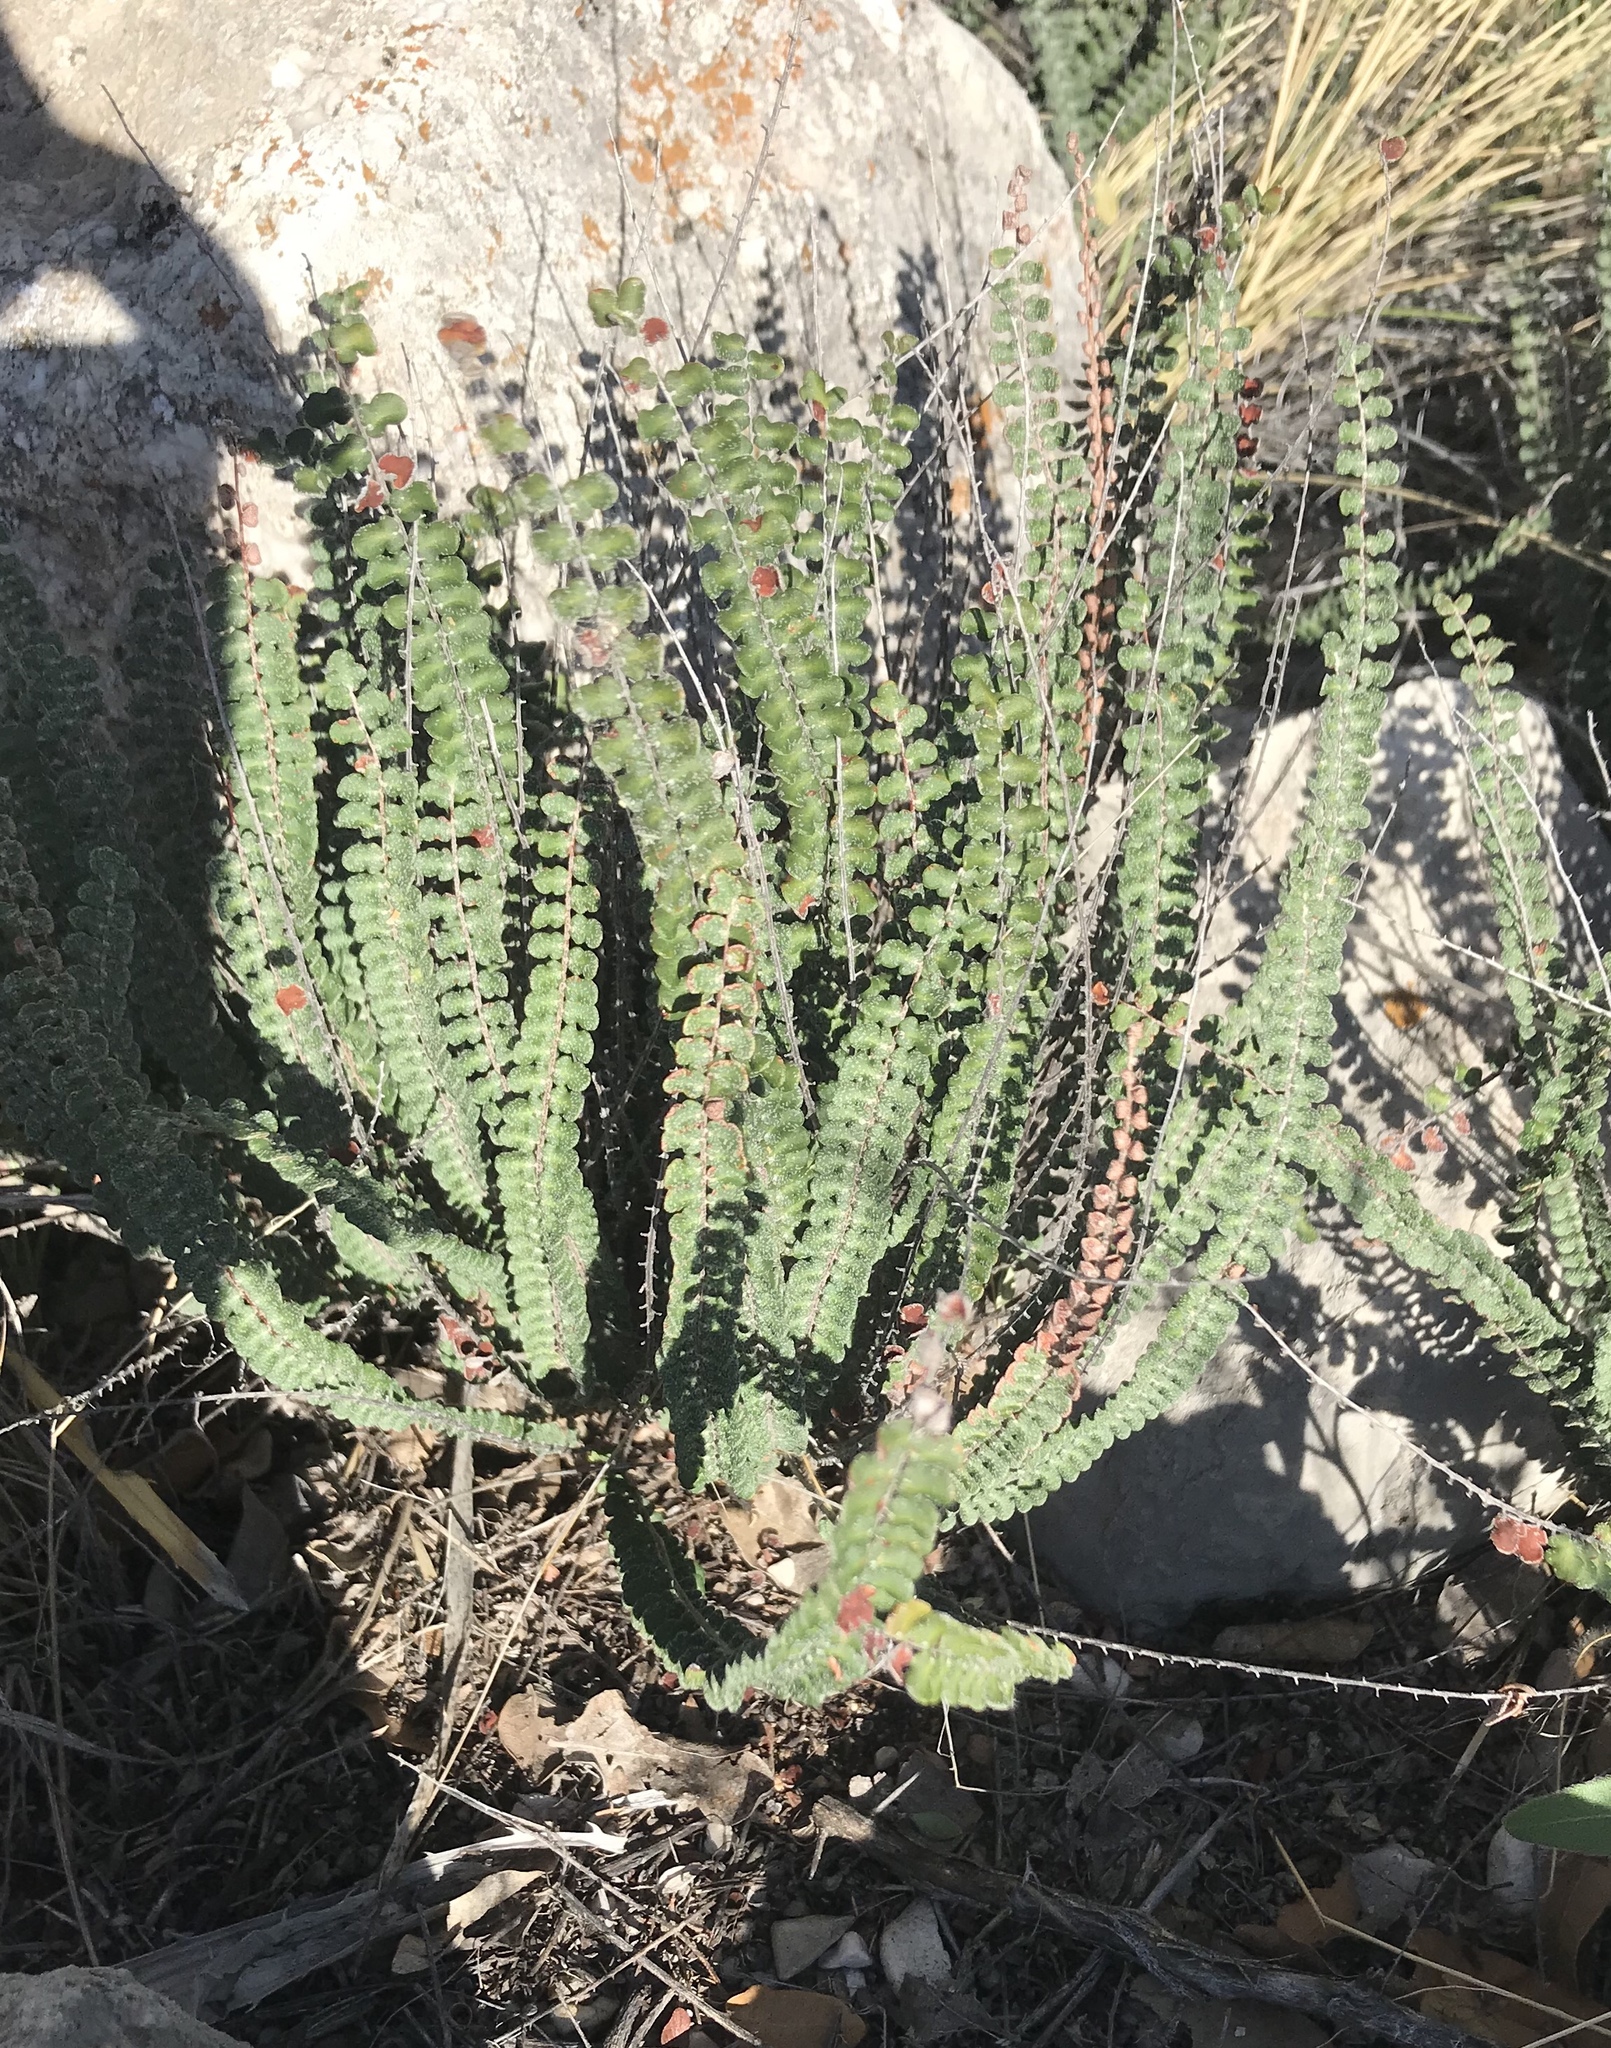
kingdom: Plantae
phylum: Tracheophyta
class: Polypodiopsida
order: Polypodiales
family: Pteridaceae
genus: Astrolepis
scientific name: Astrolepis cochisensis
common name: Scaly cloak fern
